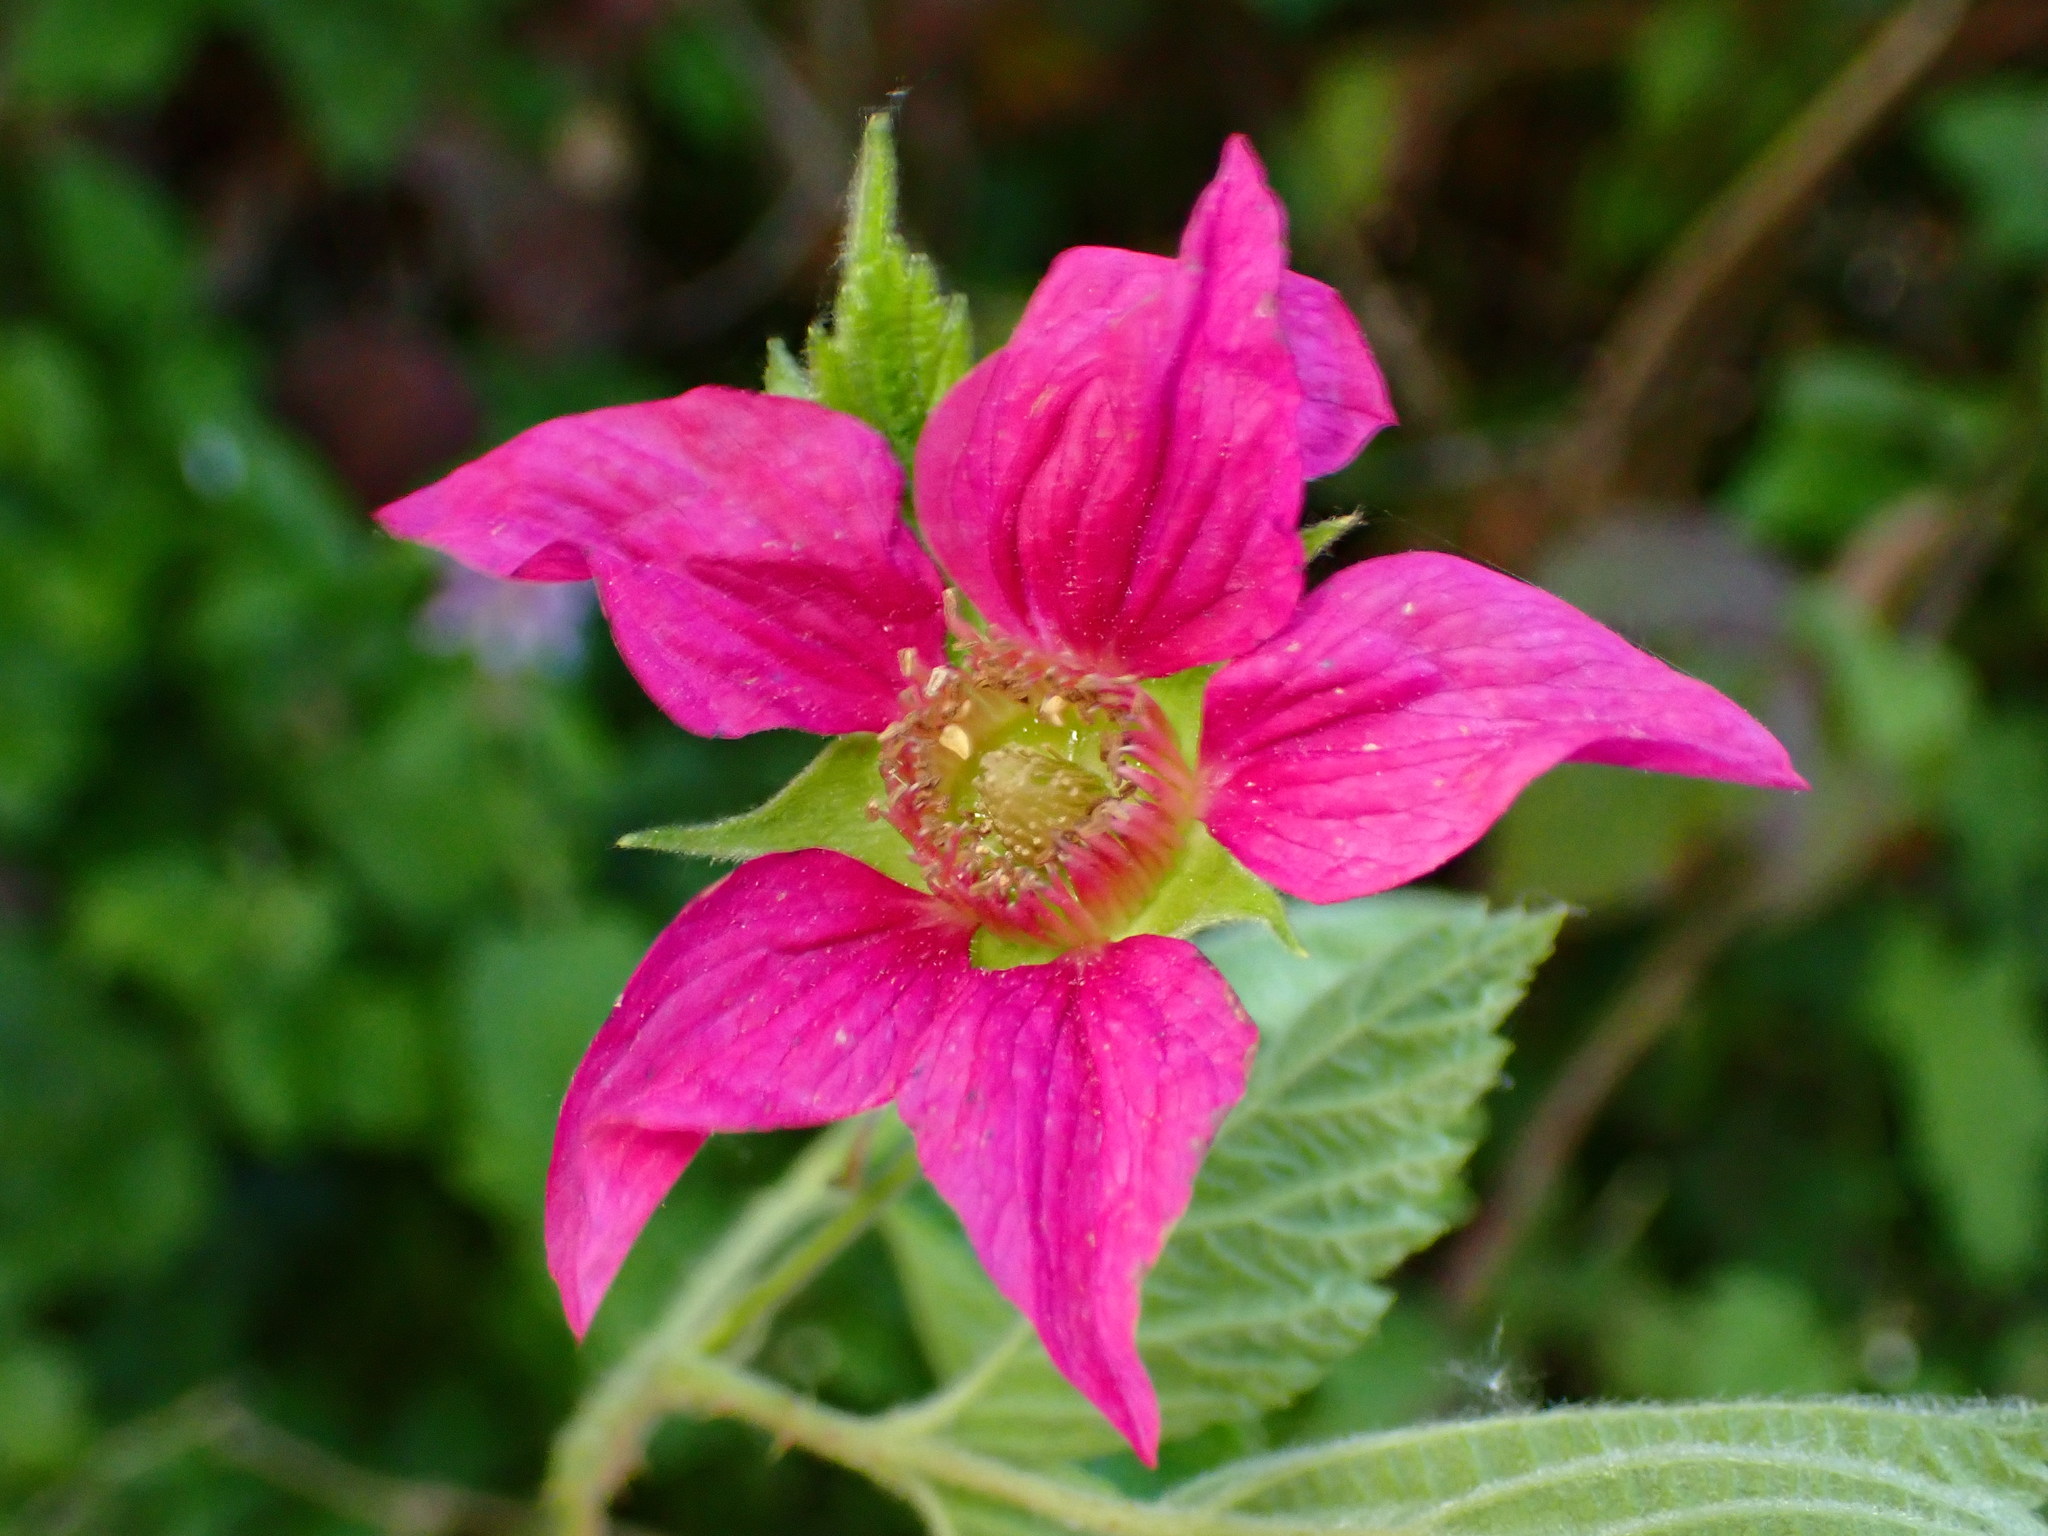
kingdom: Plantae
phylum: Tracheophyta
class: Magnoliopsida
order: Rosales
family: Rosaceae
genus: Rubus
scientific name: Rubus spectabilis
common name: Salmonberry
